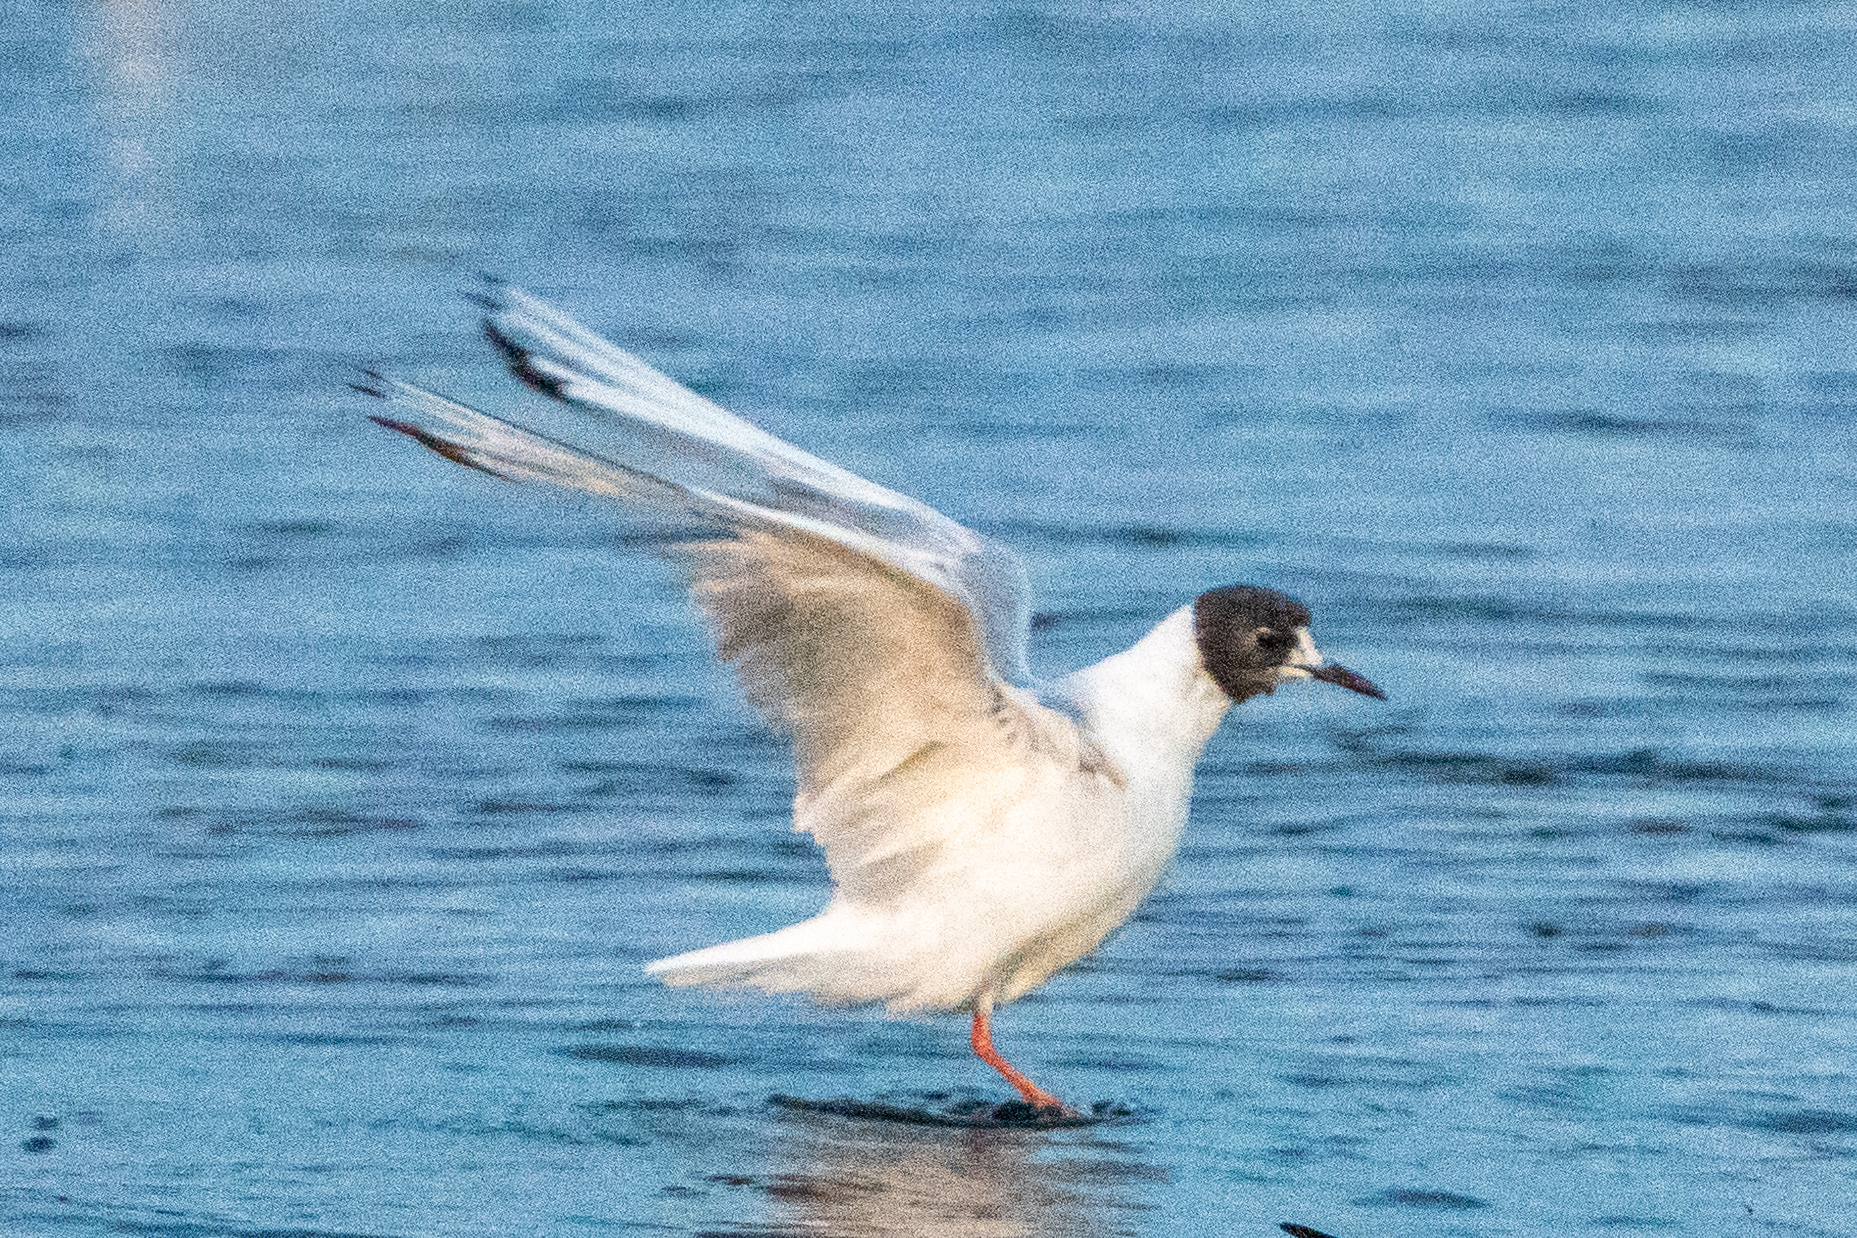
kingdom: Animalia
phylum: Chordata
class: Aves
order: Charadriiformes
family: Laridae
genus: Chroicocephalus
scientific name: Chroicocephalus philadelphia
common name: Bonaparte's gull
